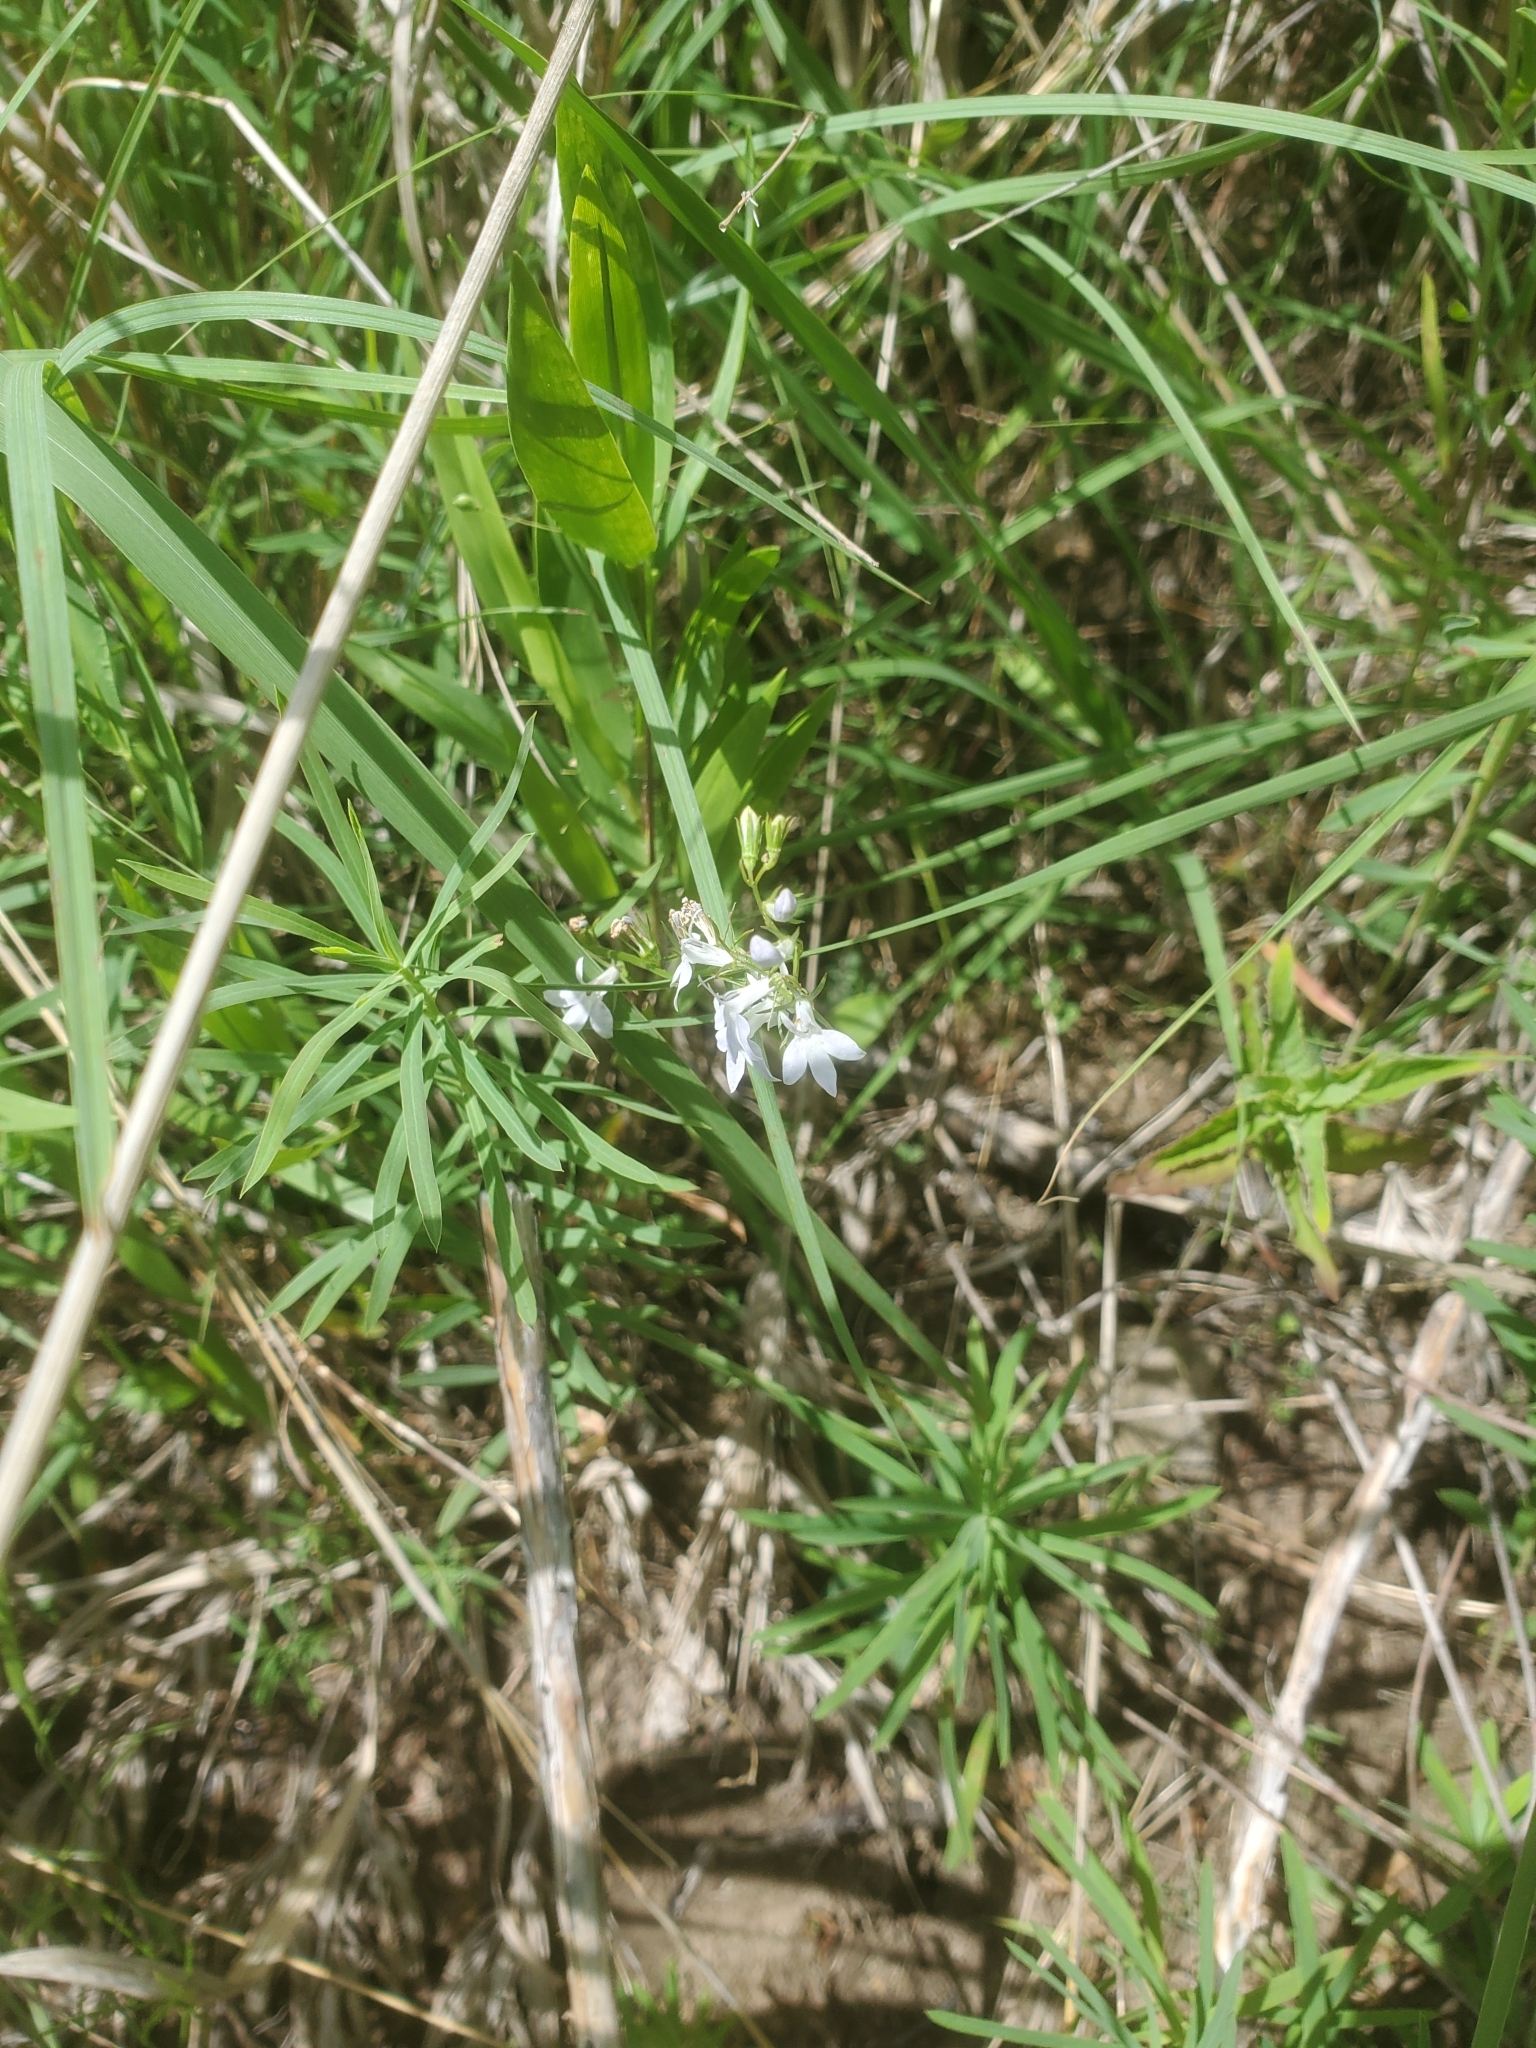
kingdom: Plantae
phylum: Tracheophyta
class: Magnoliopsida
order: Asterales
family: Campanulaceae
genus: Lobelia
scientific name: Lobelia spicata
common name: Pale-spike lobelia
